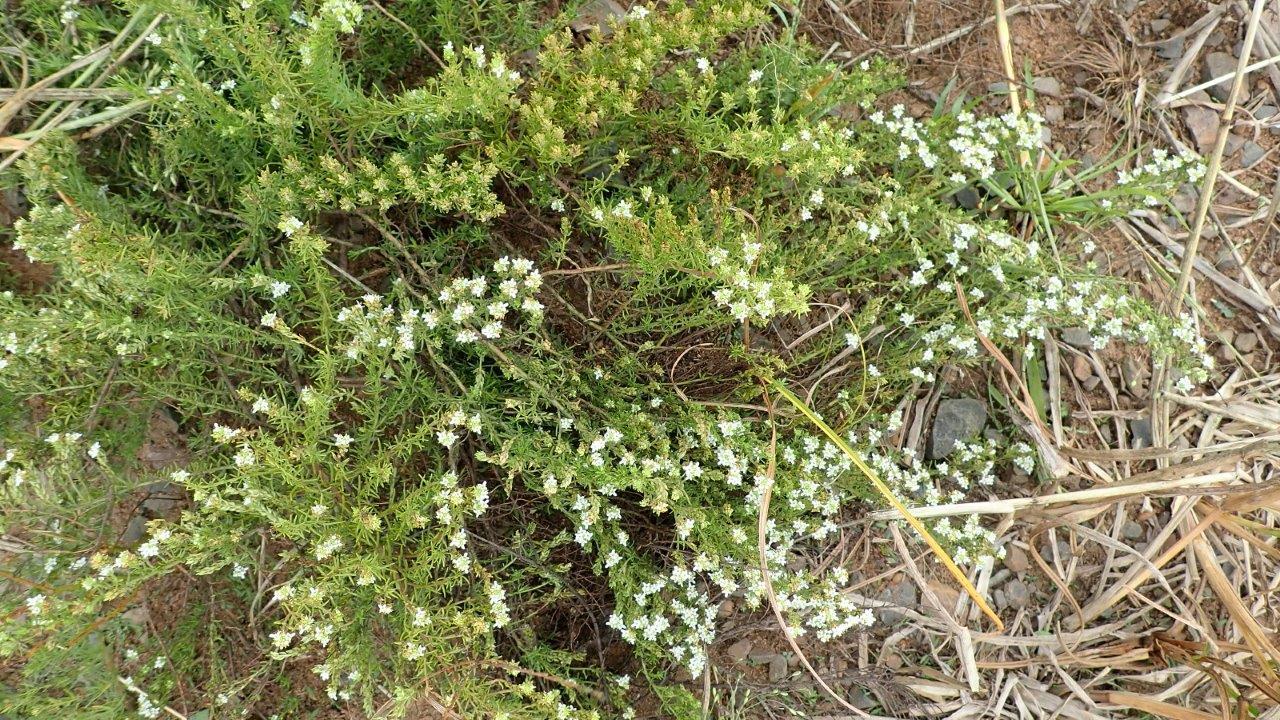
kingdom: Plantae
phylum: Tracheophyta
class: Magnoliopsida
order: Lamiales
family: Scrophulariaceae
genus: Selago
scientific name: Selago densiflora
